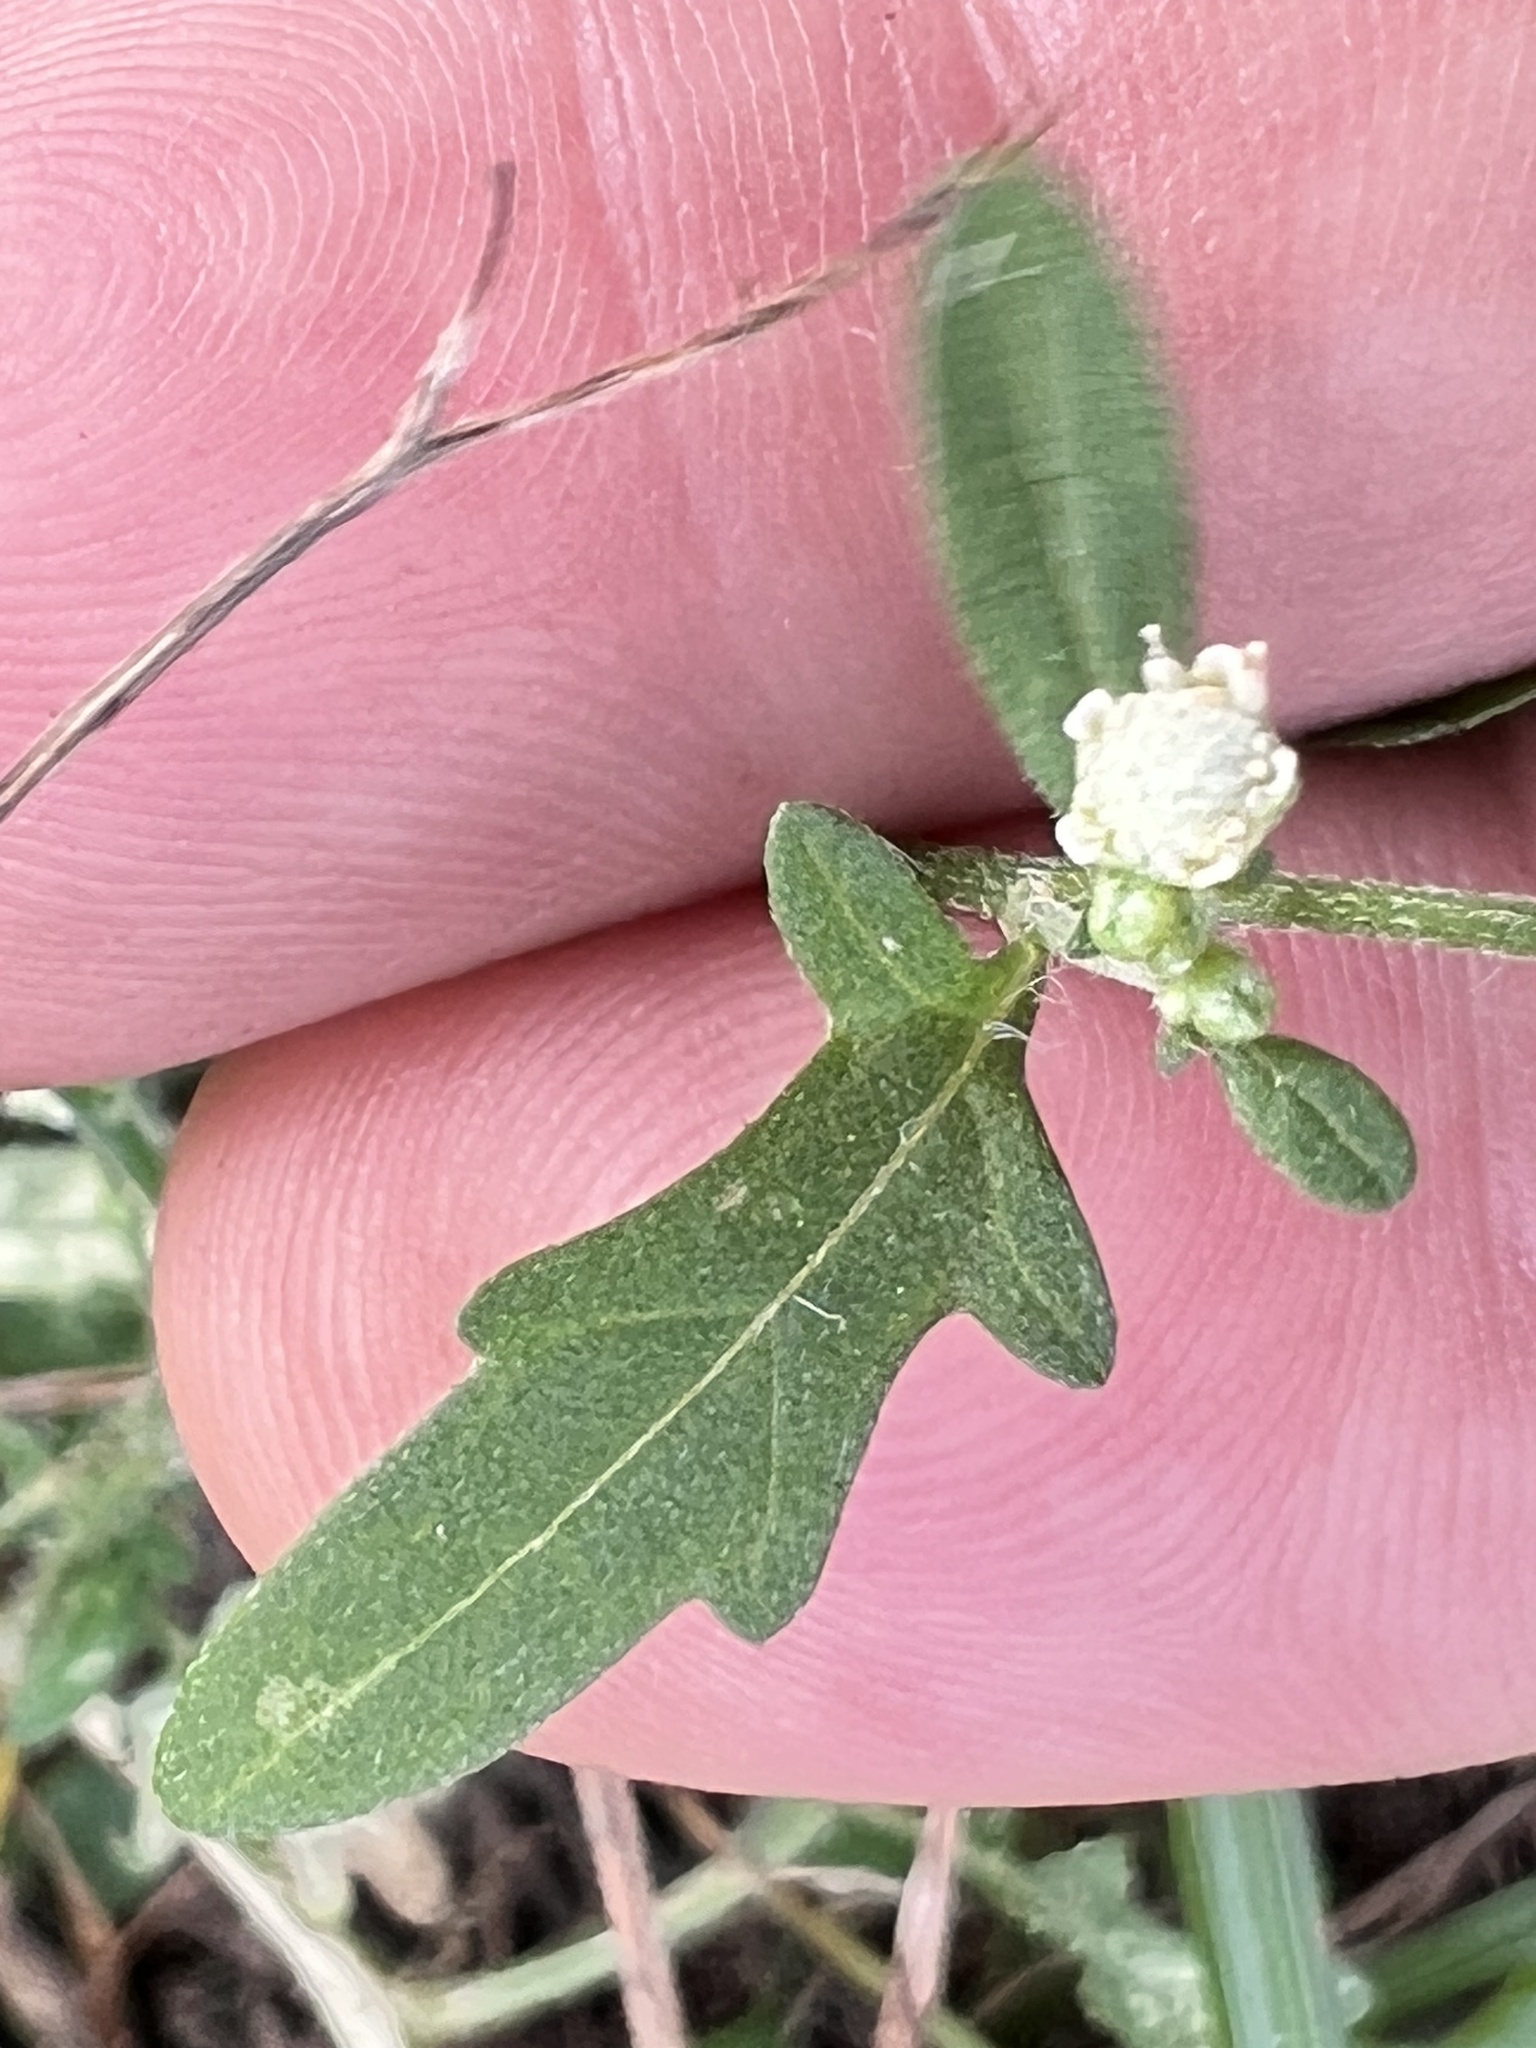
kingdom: Plantae
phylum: Tracheophyta
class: Magnoliopsida
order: Asterales
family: Asteraceae
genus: Parthenium
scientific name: Parthenium hysterophorus
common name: Santa maria feverfew
